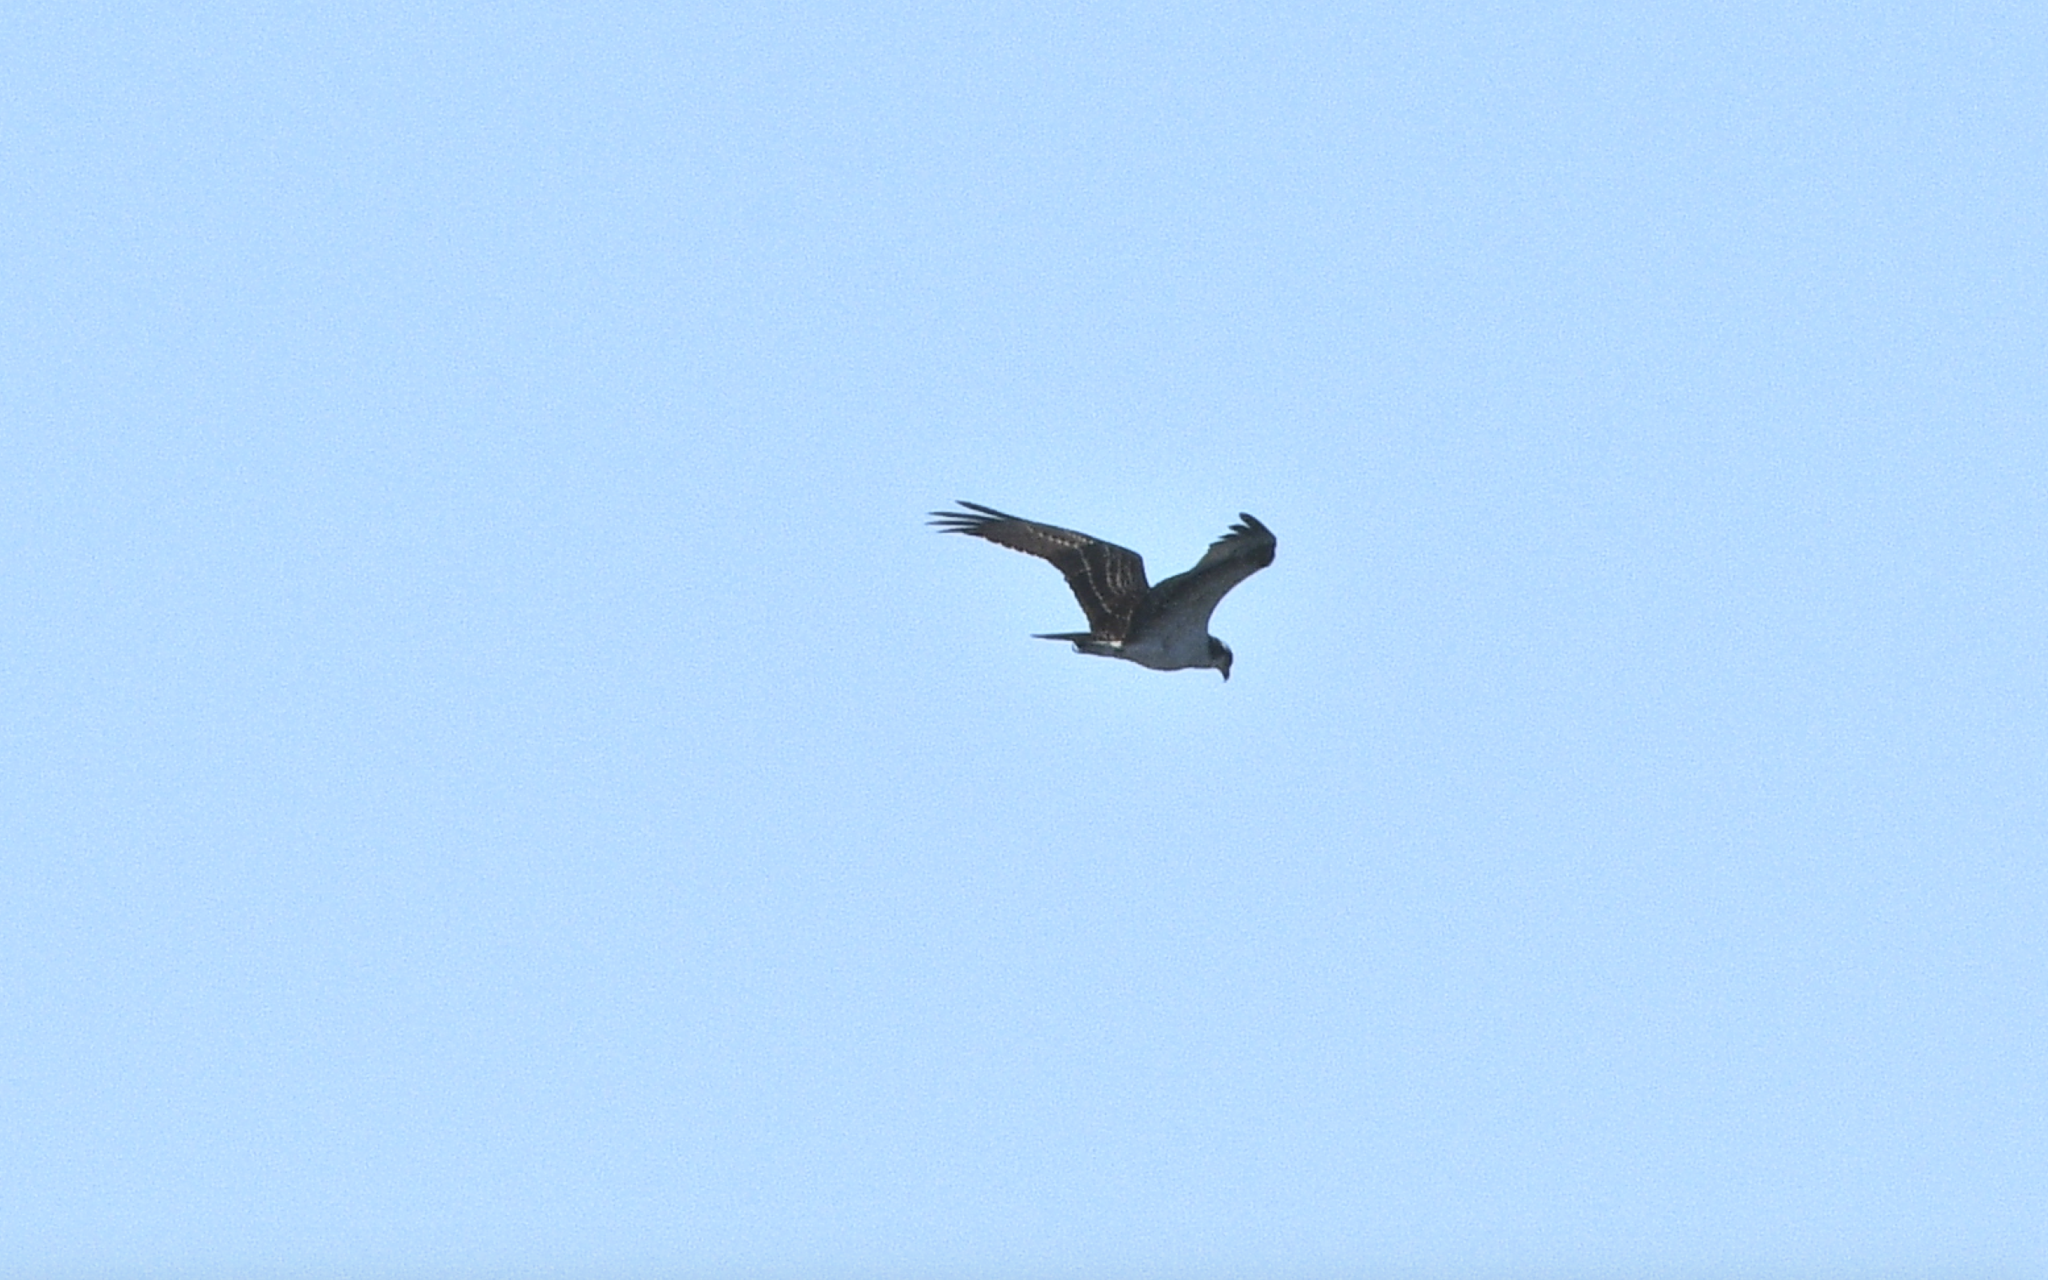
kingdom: Animalia
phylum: Chordata
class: Aves
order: Accipitriformes
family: Pandionidae
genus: Pandion
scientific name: Pandion haliaetus
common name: Osprey
